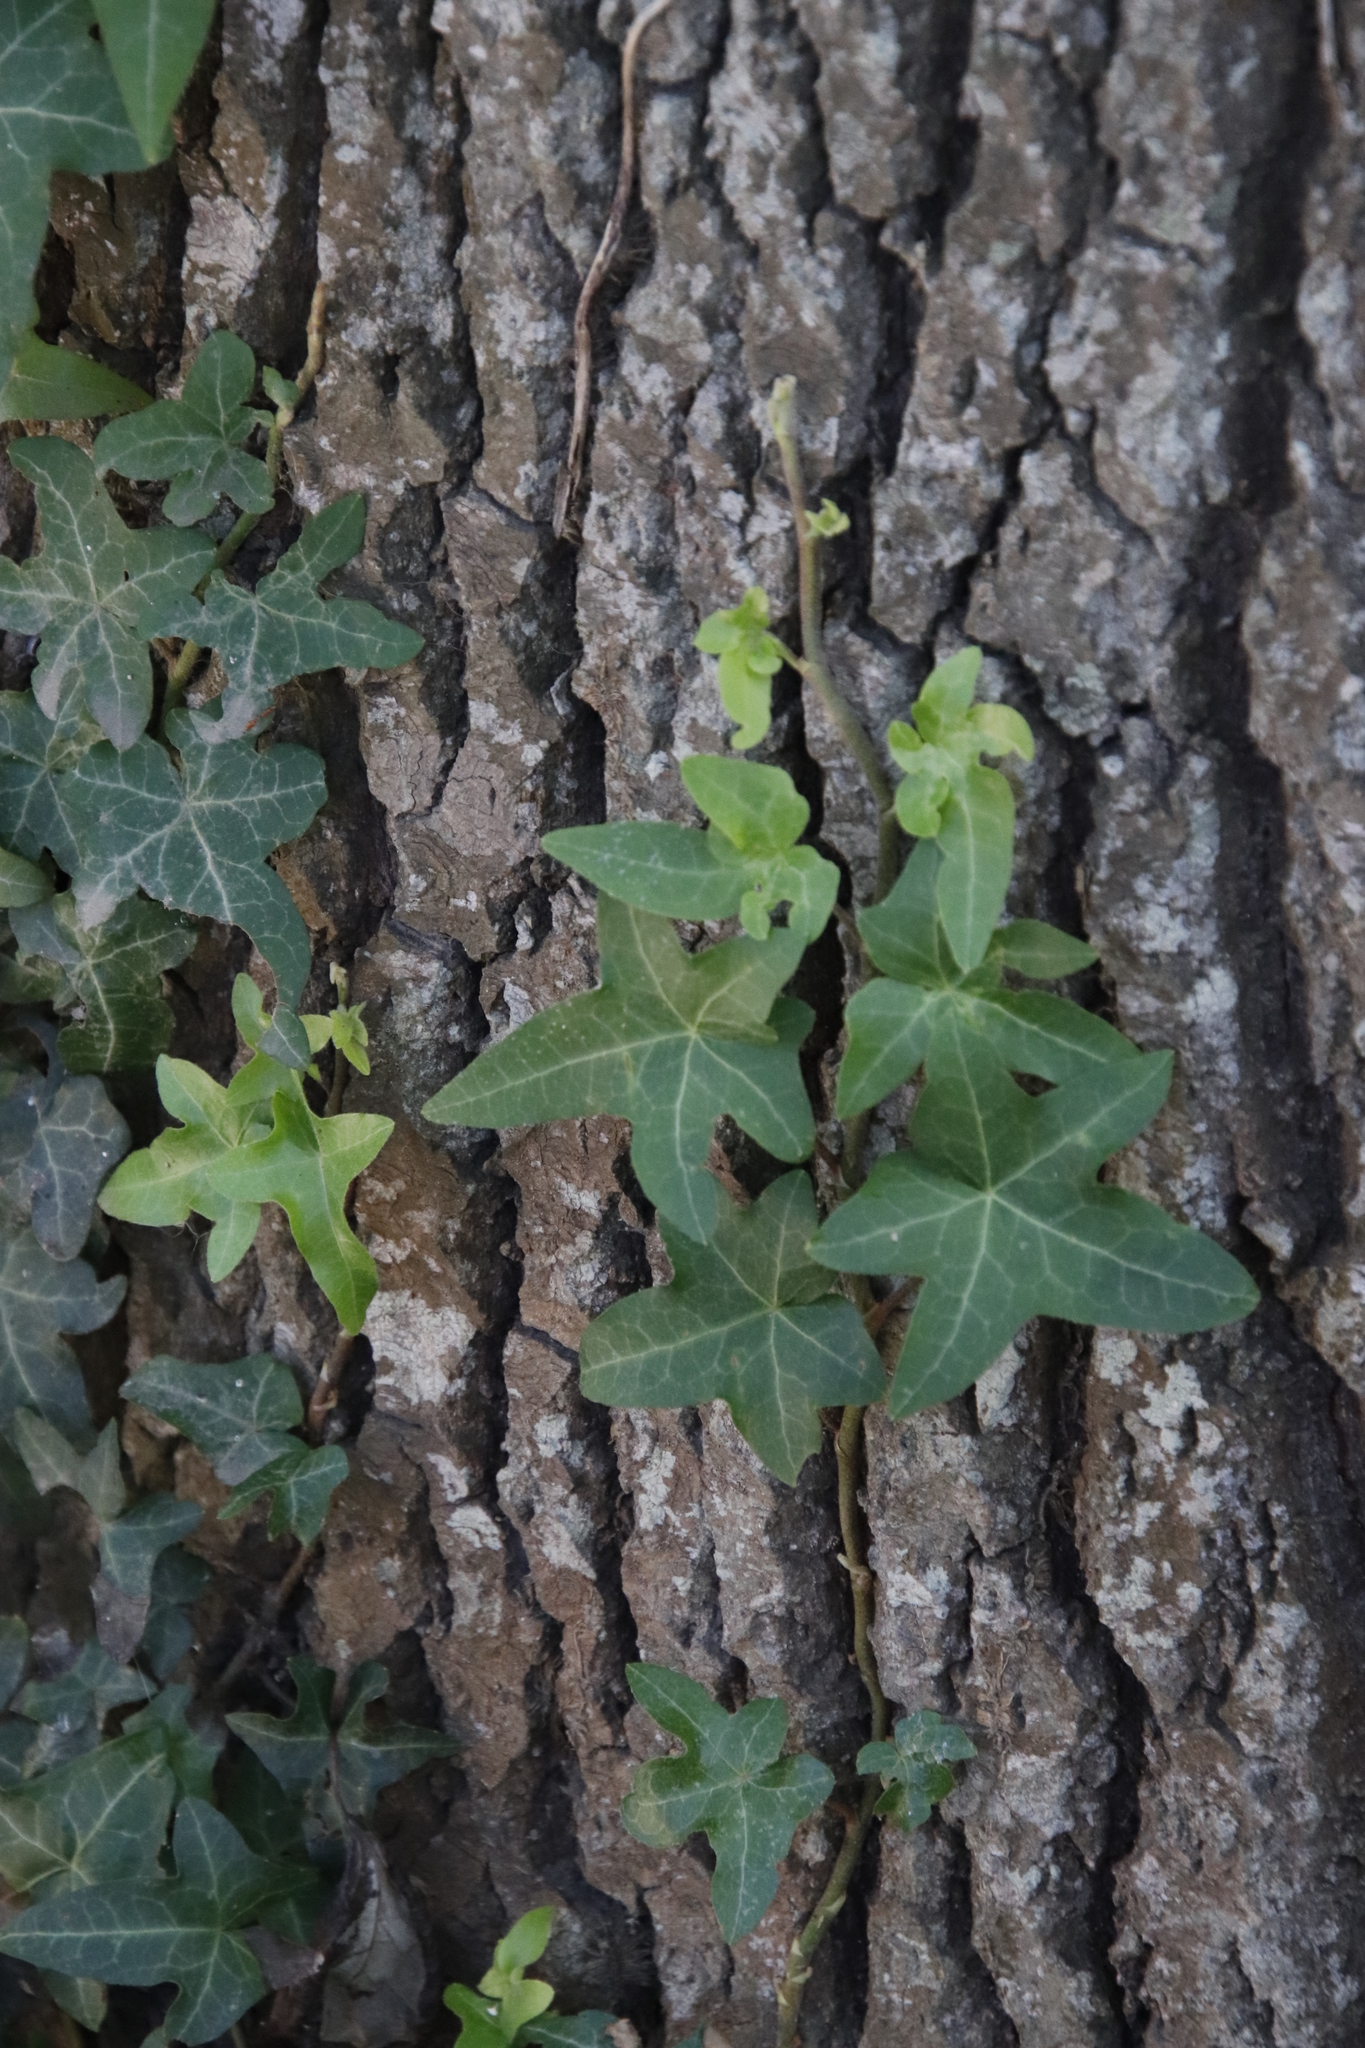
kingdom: Plantae
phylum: Tracheophyta
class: Magnoliopsida
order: Apiales
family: Araliaceae
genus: Hedera
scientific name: Hedera helix
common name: Ivy
